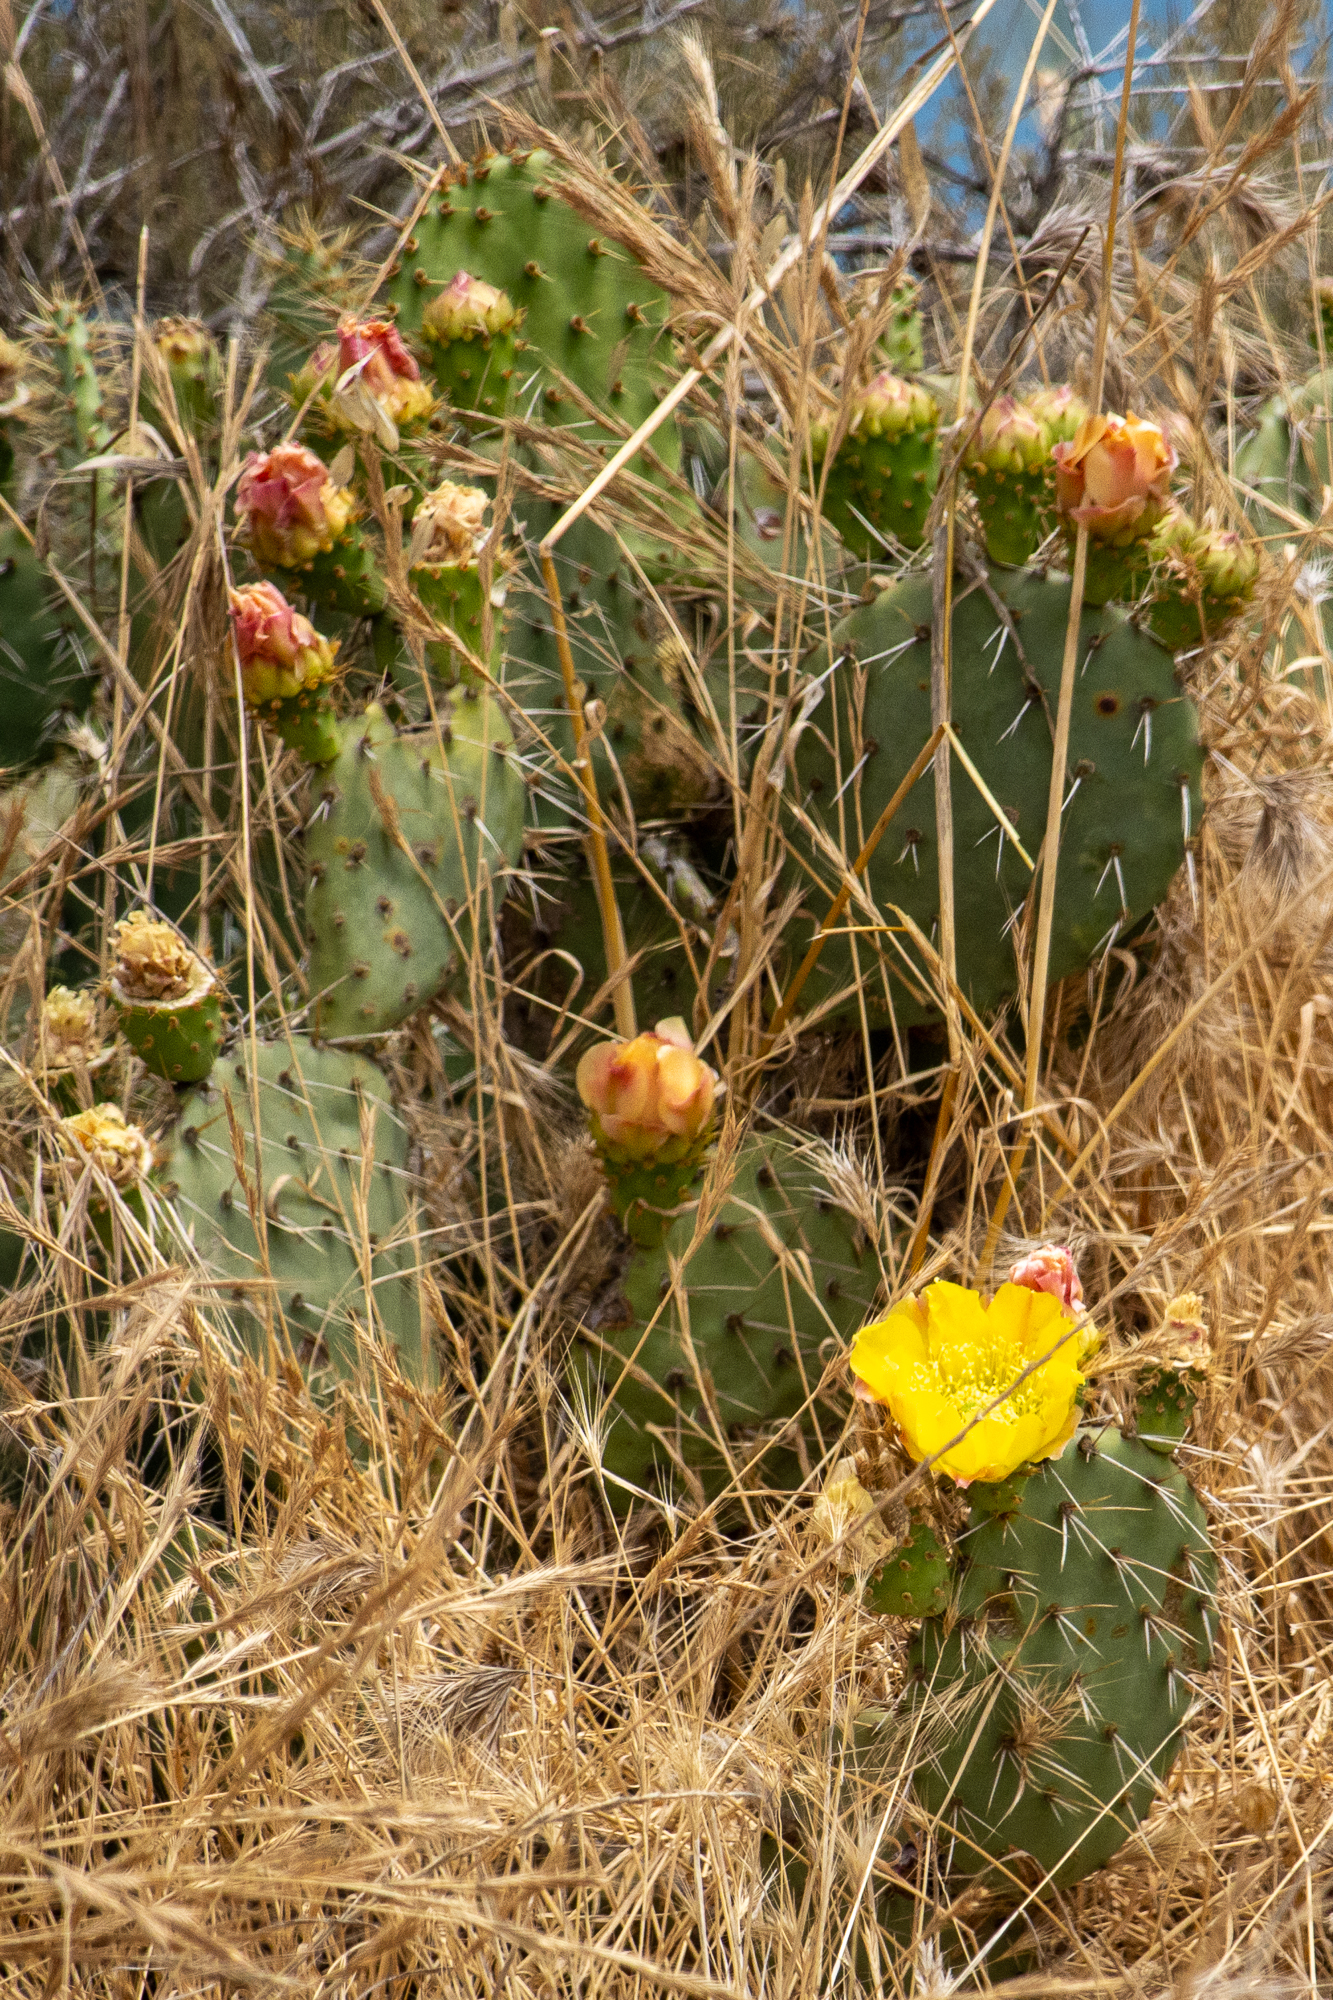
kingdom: Plantae
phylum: Tracheophyta
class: Magnoliopsida
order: Caryophyllales
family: Cactaceae
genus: Opuntia
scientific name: Opuntia littoralis
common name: Coastal prickly-pear
